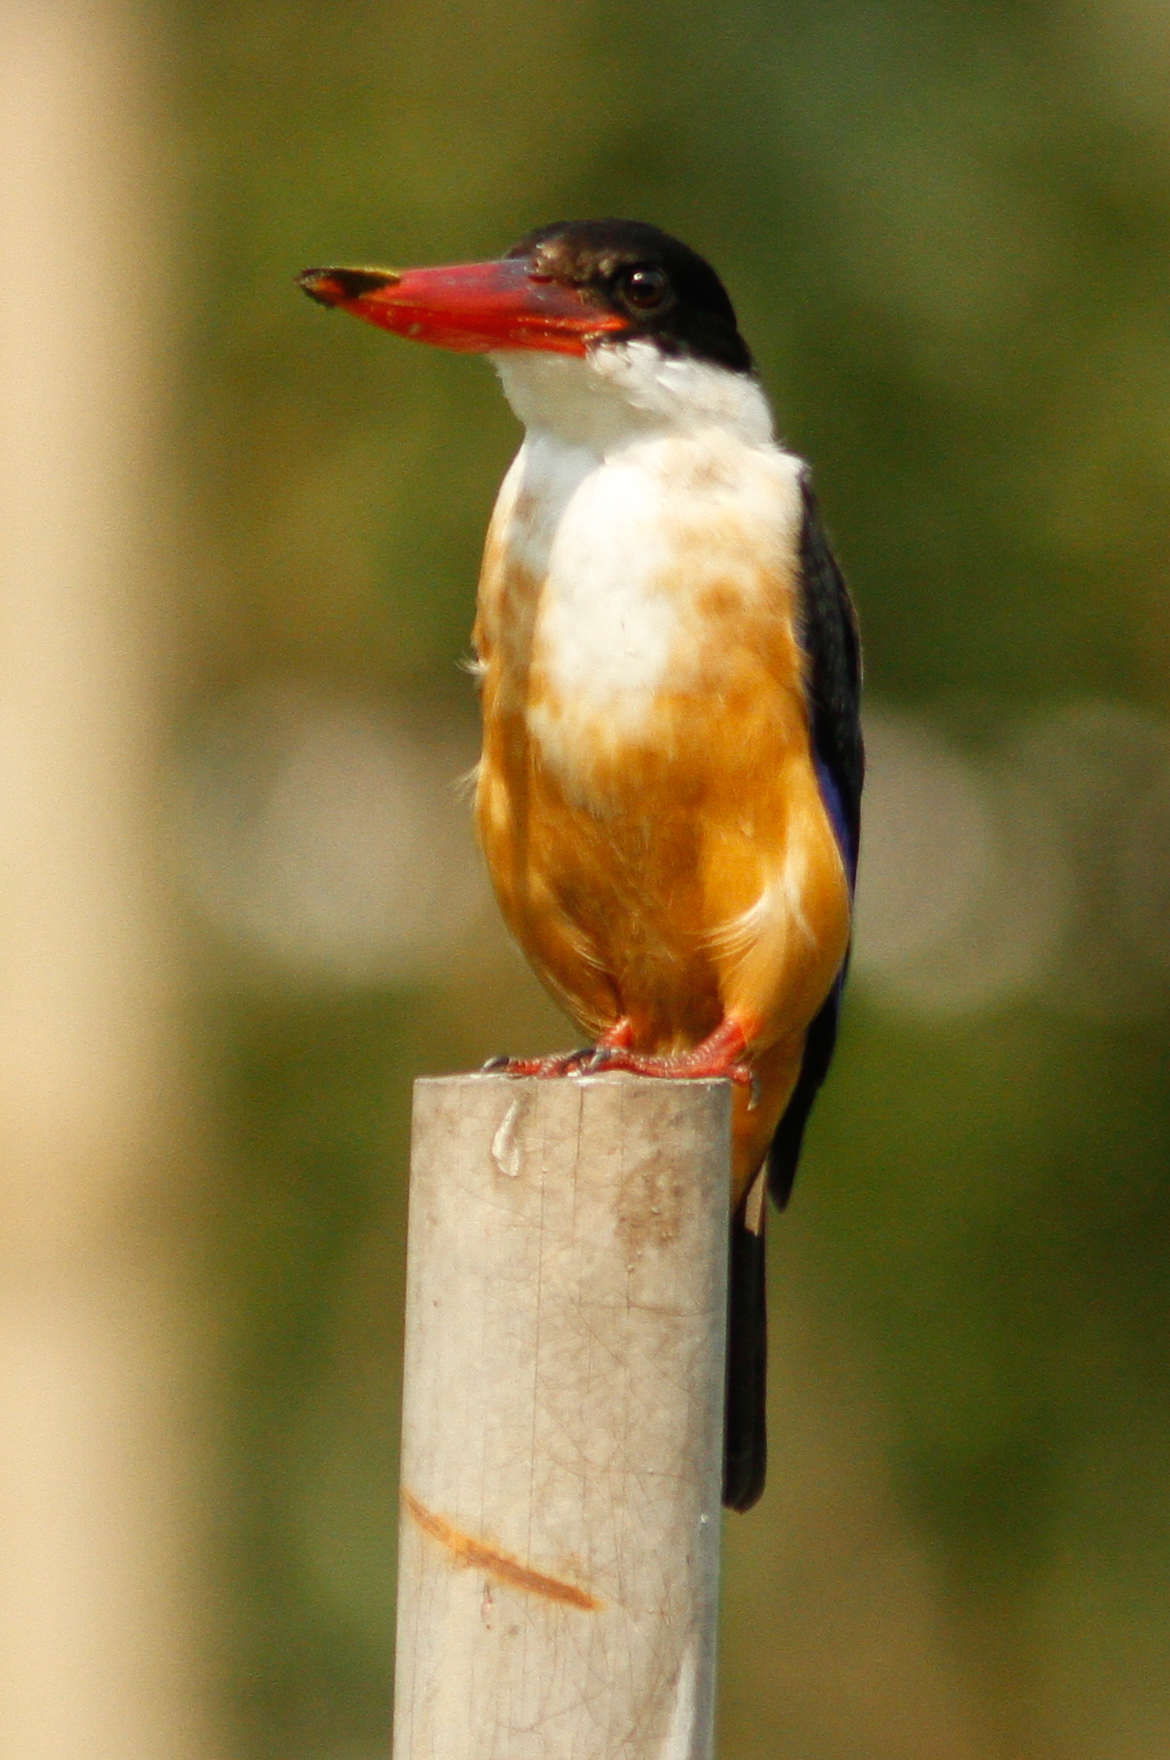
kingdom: Animalia
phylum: Chordata
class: Aves
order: Coraciiformes
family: Alcedinidae
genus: Halcyon
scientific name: Halcyon pileata
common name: Black-capped kingfisher
